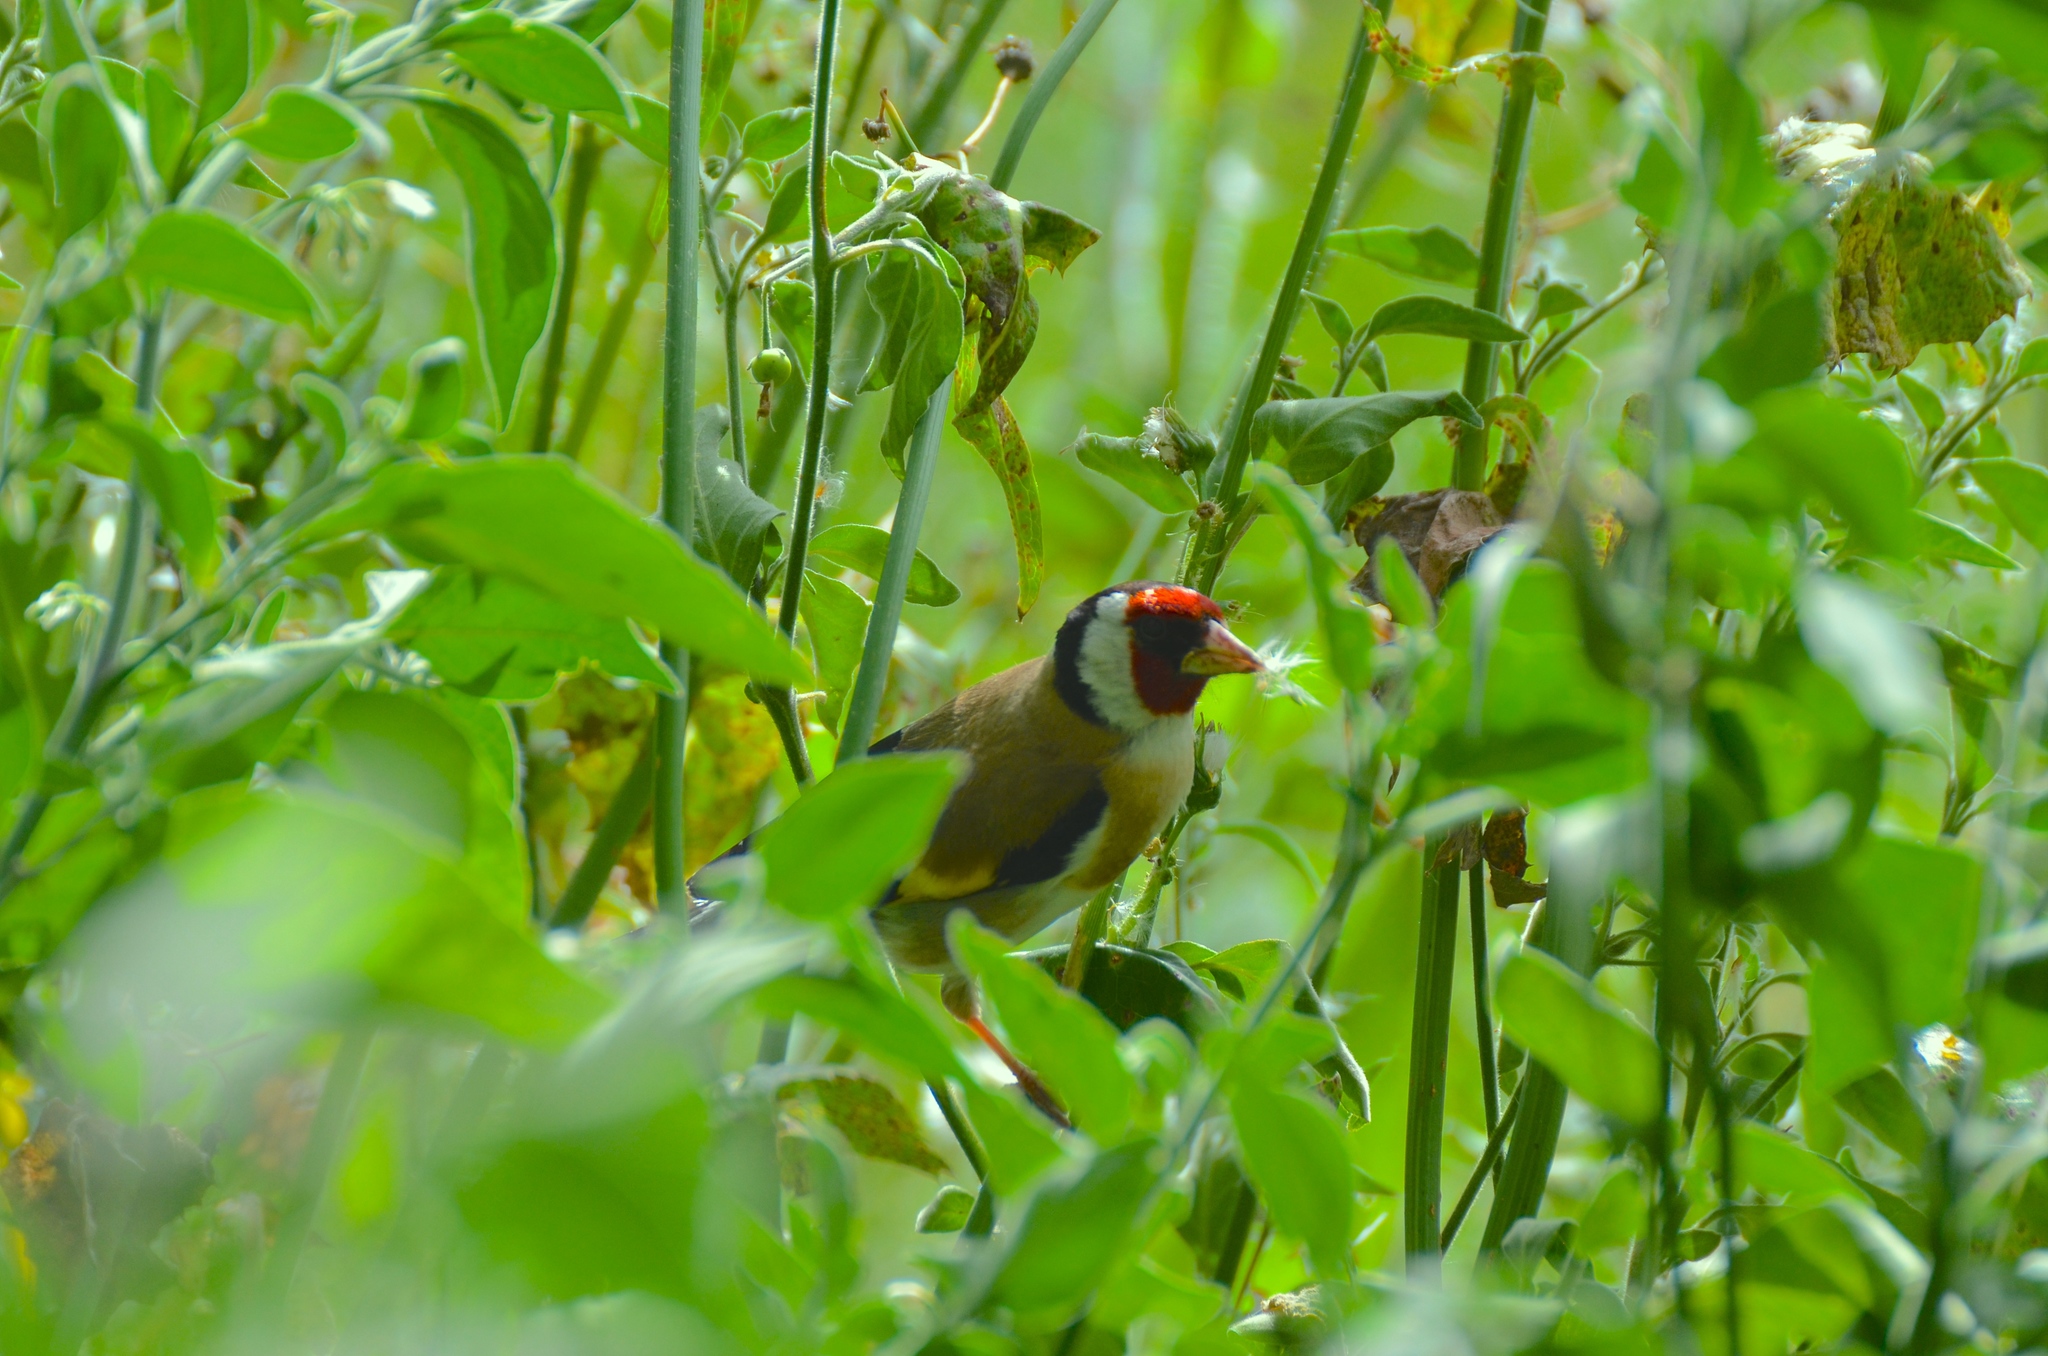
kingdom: Animalia
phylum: Chordata
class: Aves
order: Passeriformes
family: Fringillidae
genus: Carduelis
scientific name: Carduelis carduelis
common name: European goldfinch
